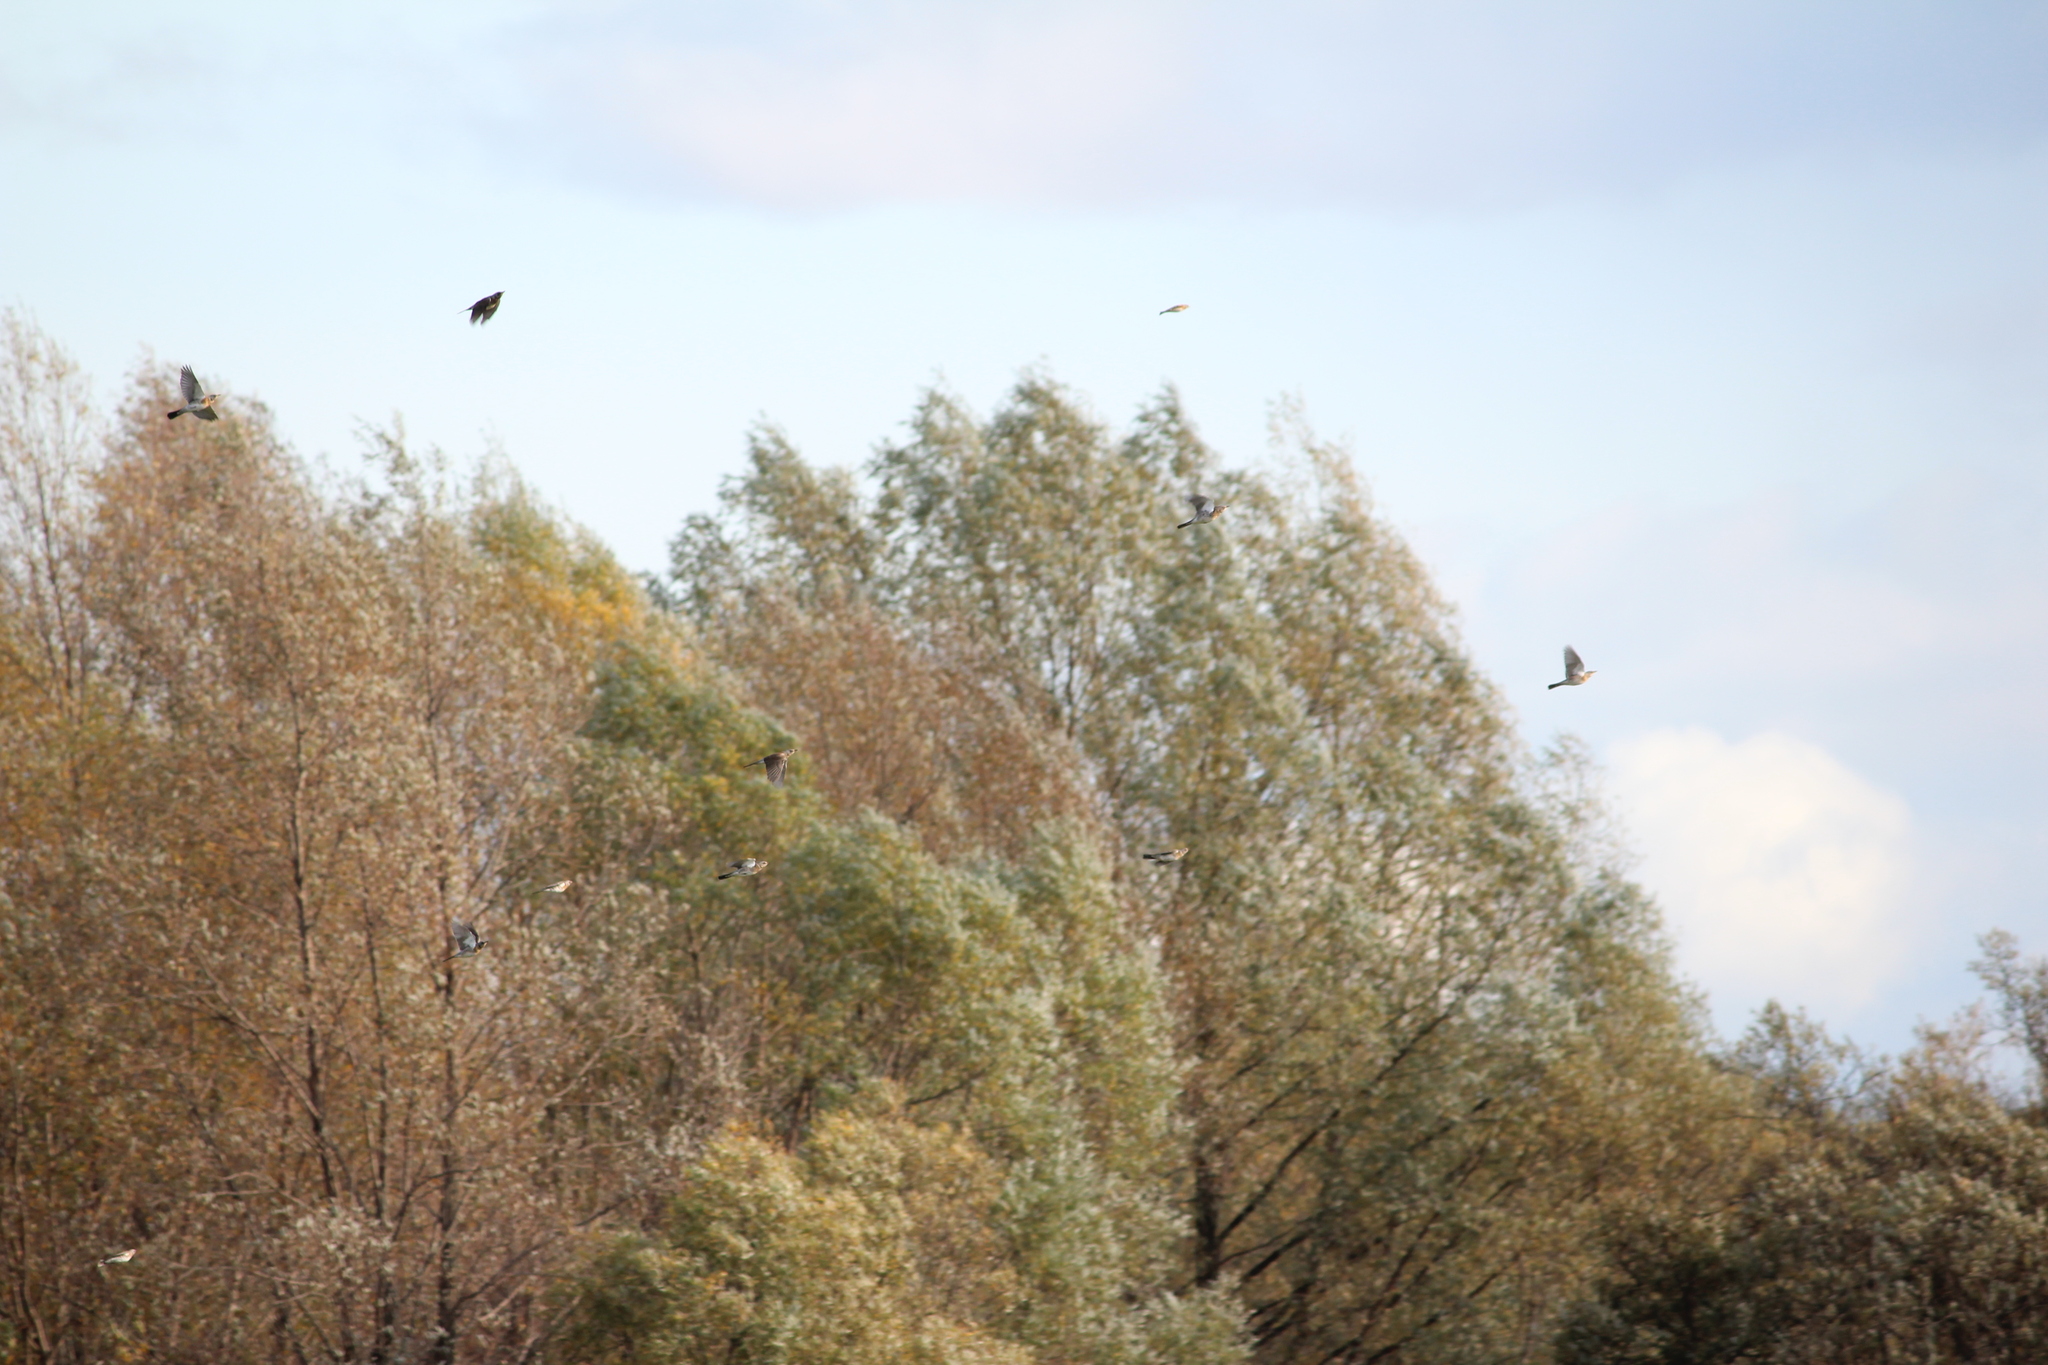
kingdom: Animalia
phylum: Chordata
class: Aves
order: Passeriformes
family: Turdidae
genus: Turdus
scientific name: Turdus pilaris
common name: Fieldfare
